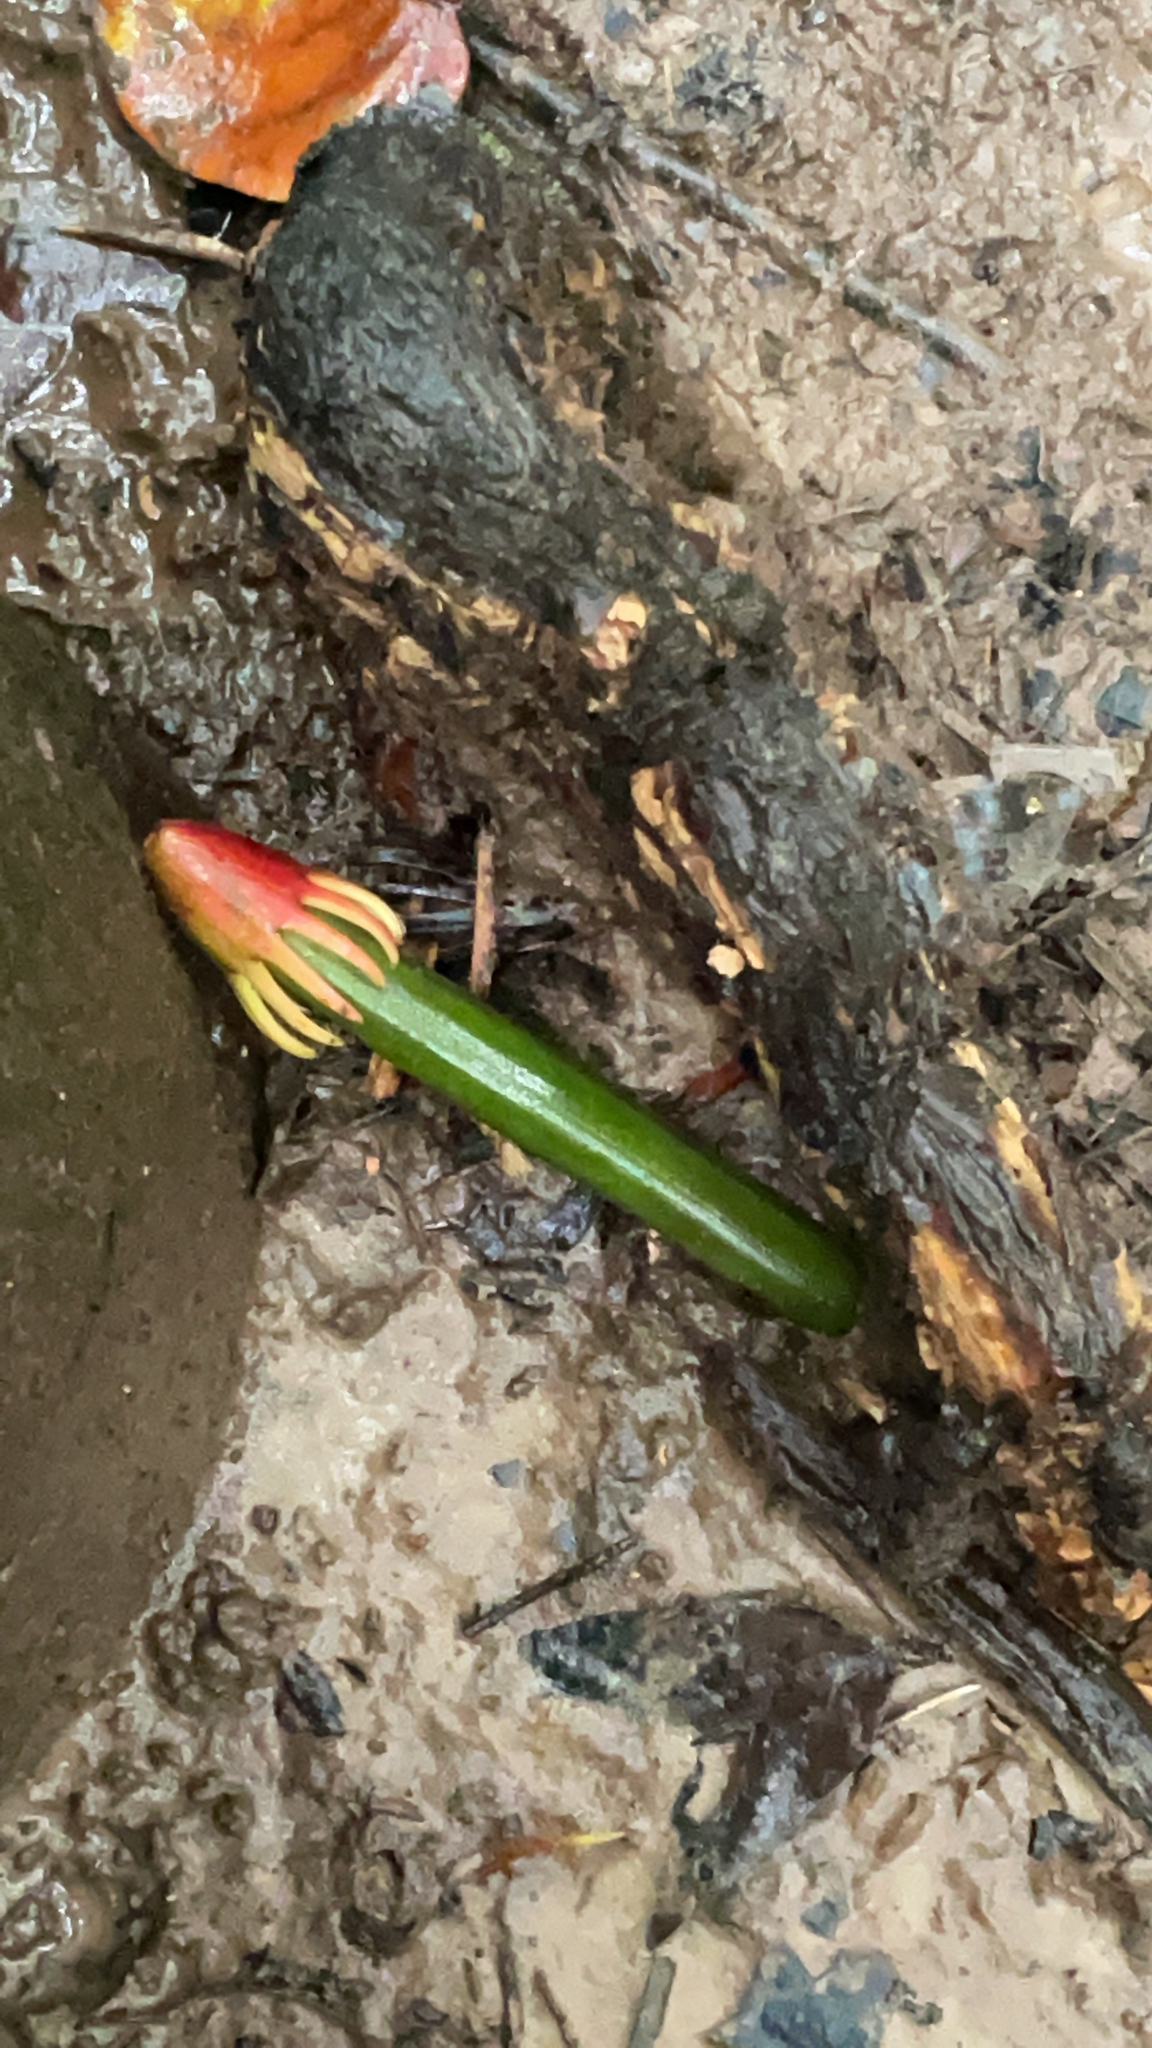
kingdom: Plantae
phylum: Tracheophyta
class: Magnoliopsida
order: Malpighiales
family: Rhizophoraceae
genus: Bruguiera
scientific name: Bruguiera gymnorhiza
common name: Oriental mangrove
